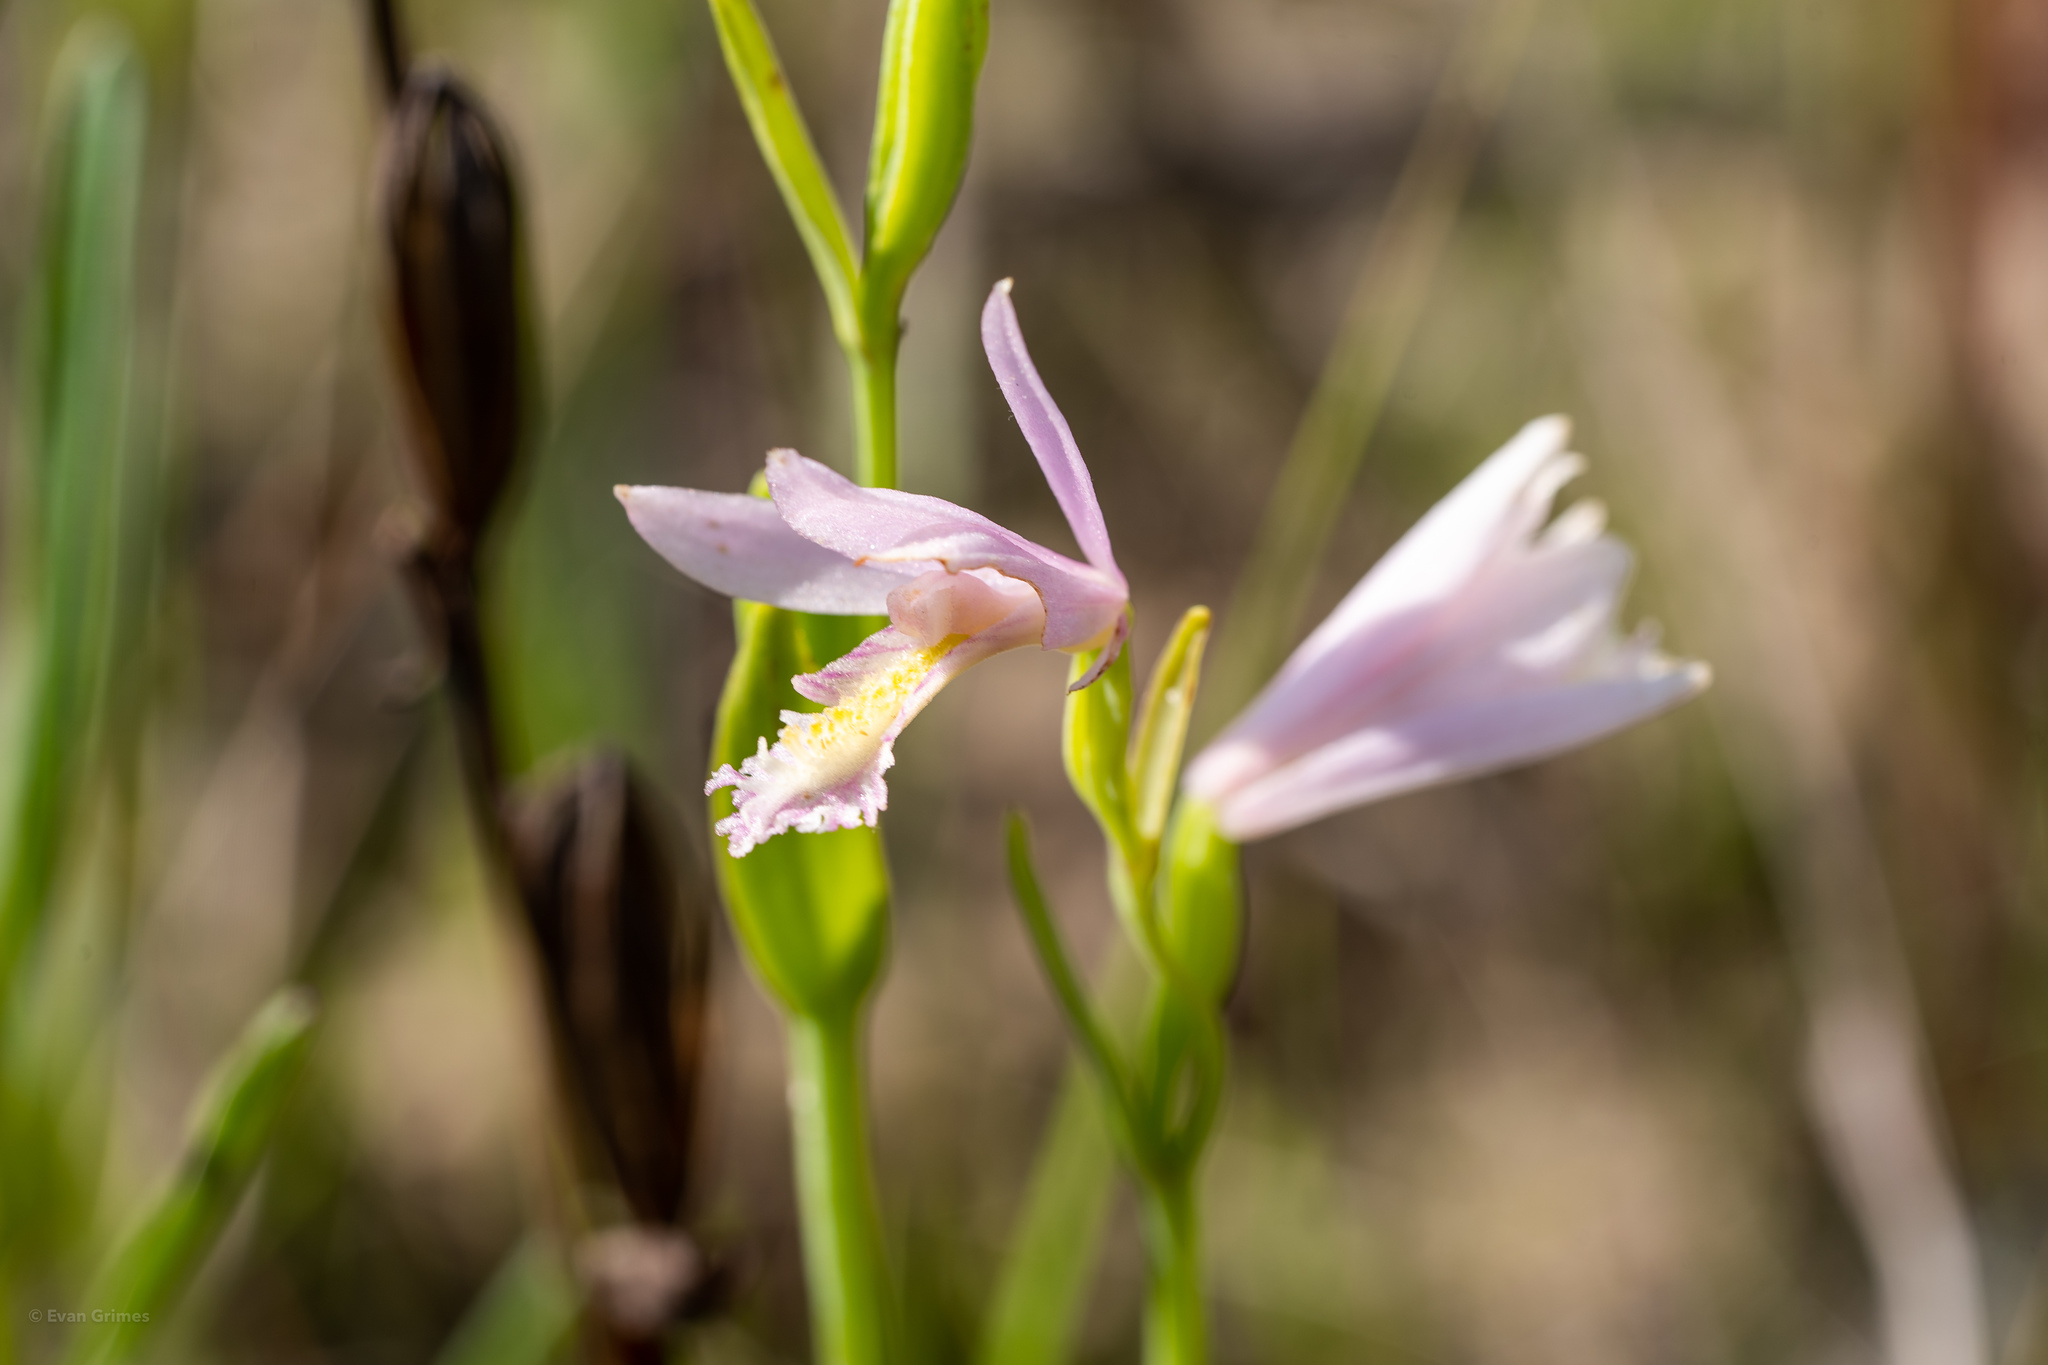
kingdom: Plantae
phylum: Tracheophyta
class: Liliopsida
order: Asparagales
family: Orchidaceae
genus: Pogonia
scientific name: Pogonia ophioglossoides
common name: Rose pogonia
